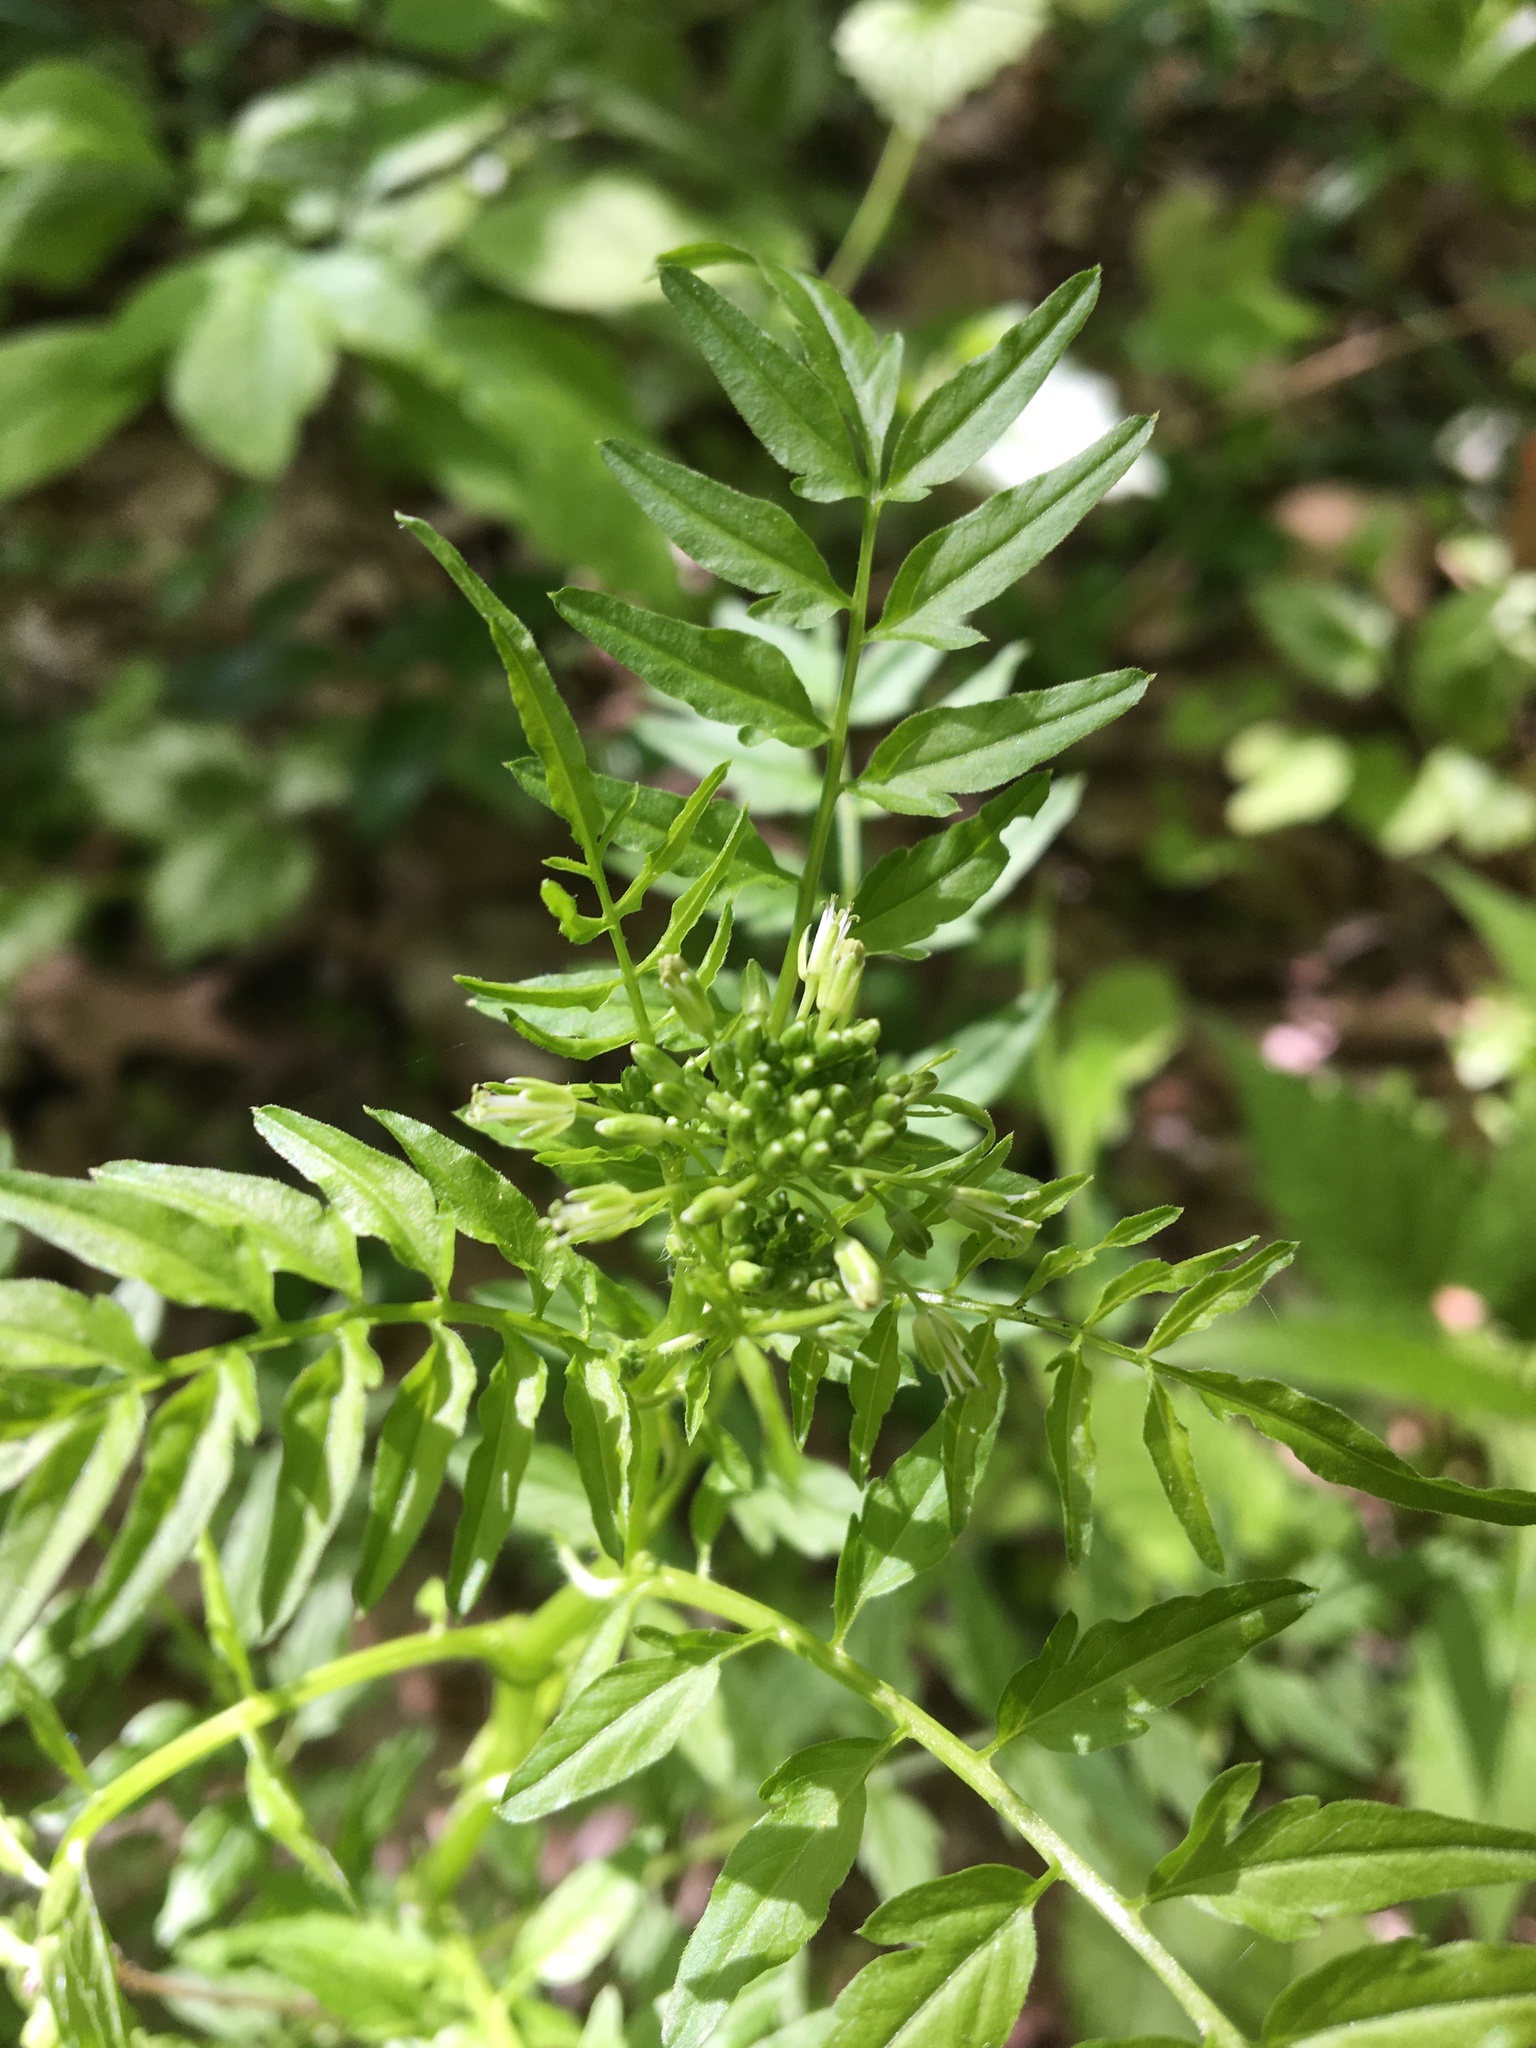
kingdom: Plantae
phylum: Tracheophyta
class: Magnoliopsida
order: Brassicales
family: Brassicaceae
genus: Cardamine
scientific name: Cardamine impatiens
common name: Narrow-leaved bitter-cress
